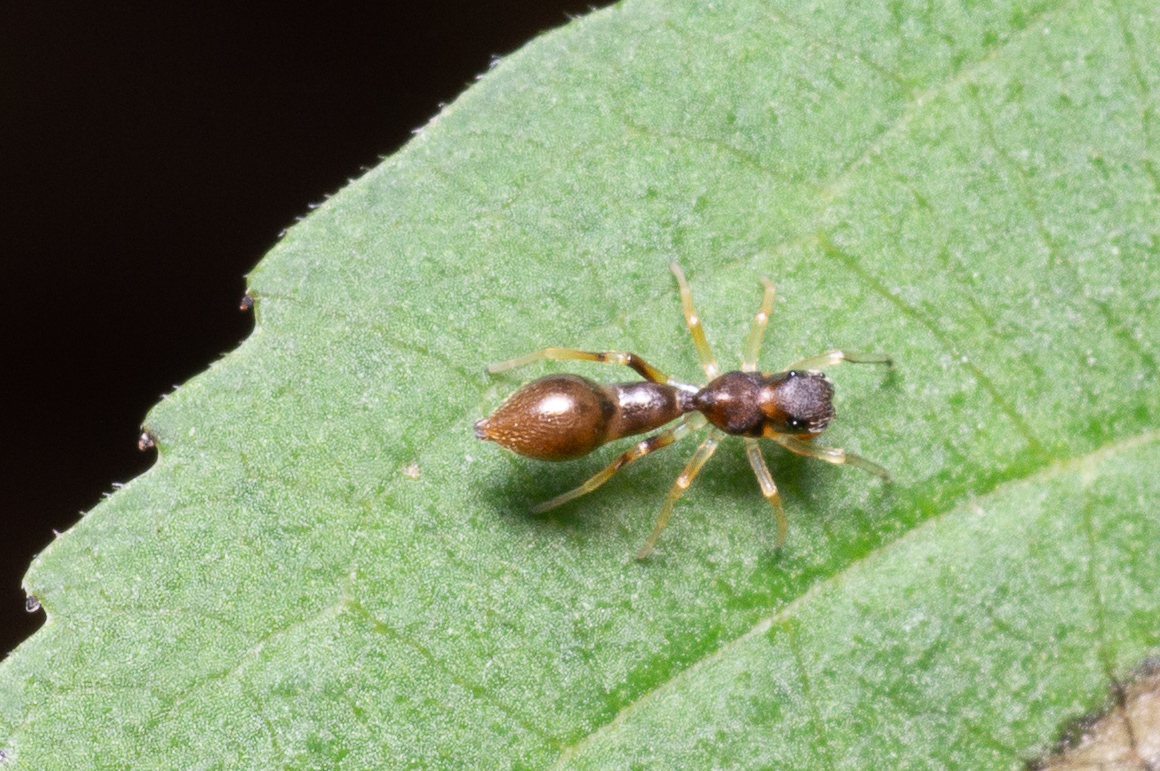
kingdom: Animalia
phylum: Arthropoda
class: Arachnida
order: Araneae
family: Salticidae
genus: Synemosyna
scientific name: Synemosyna formica
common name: Slender ant-mimic jumping spider
